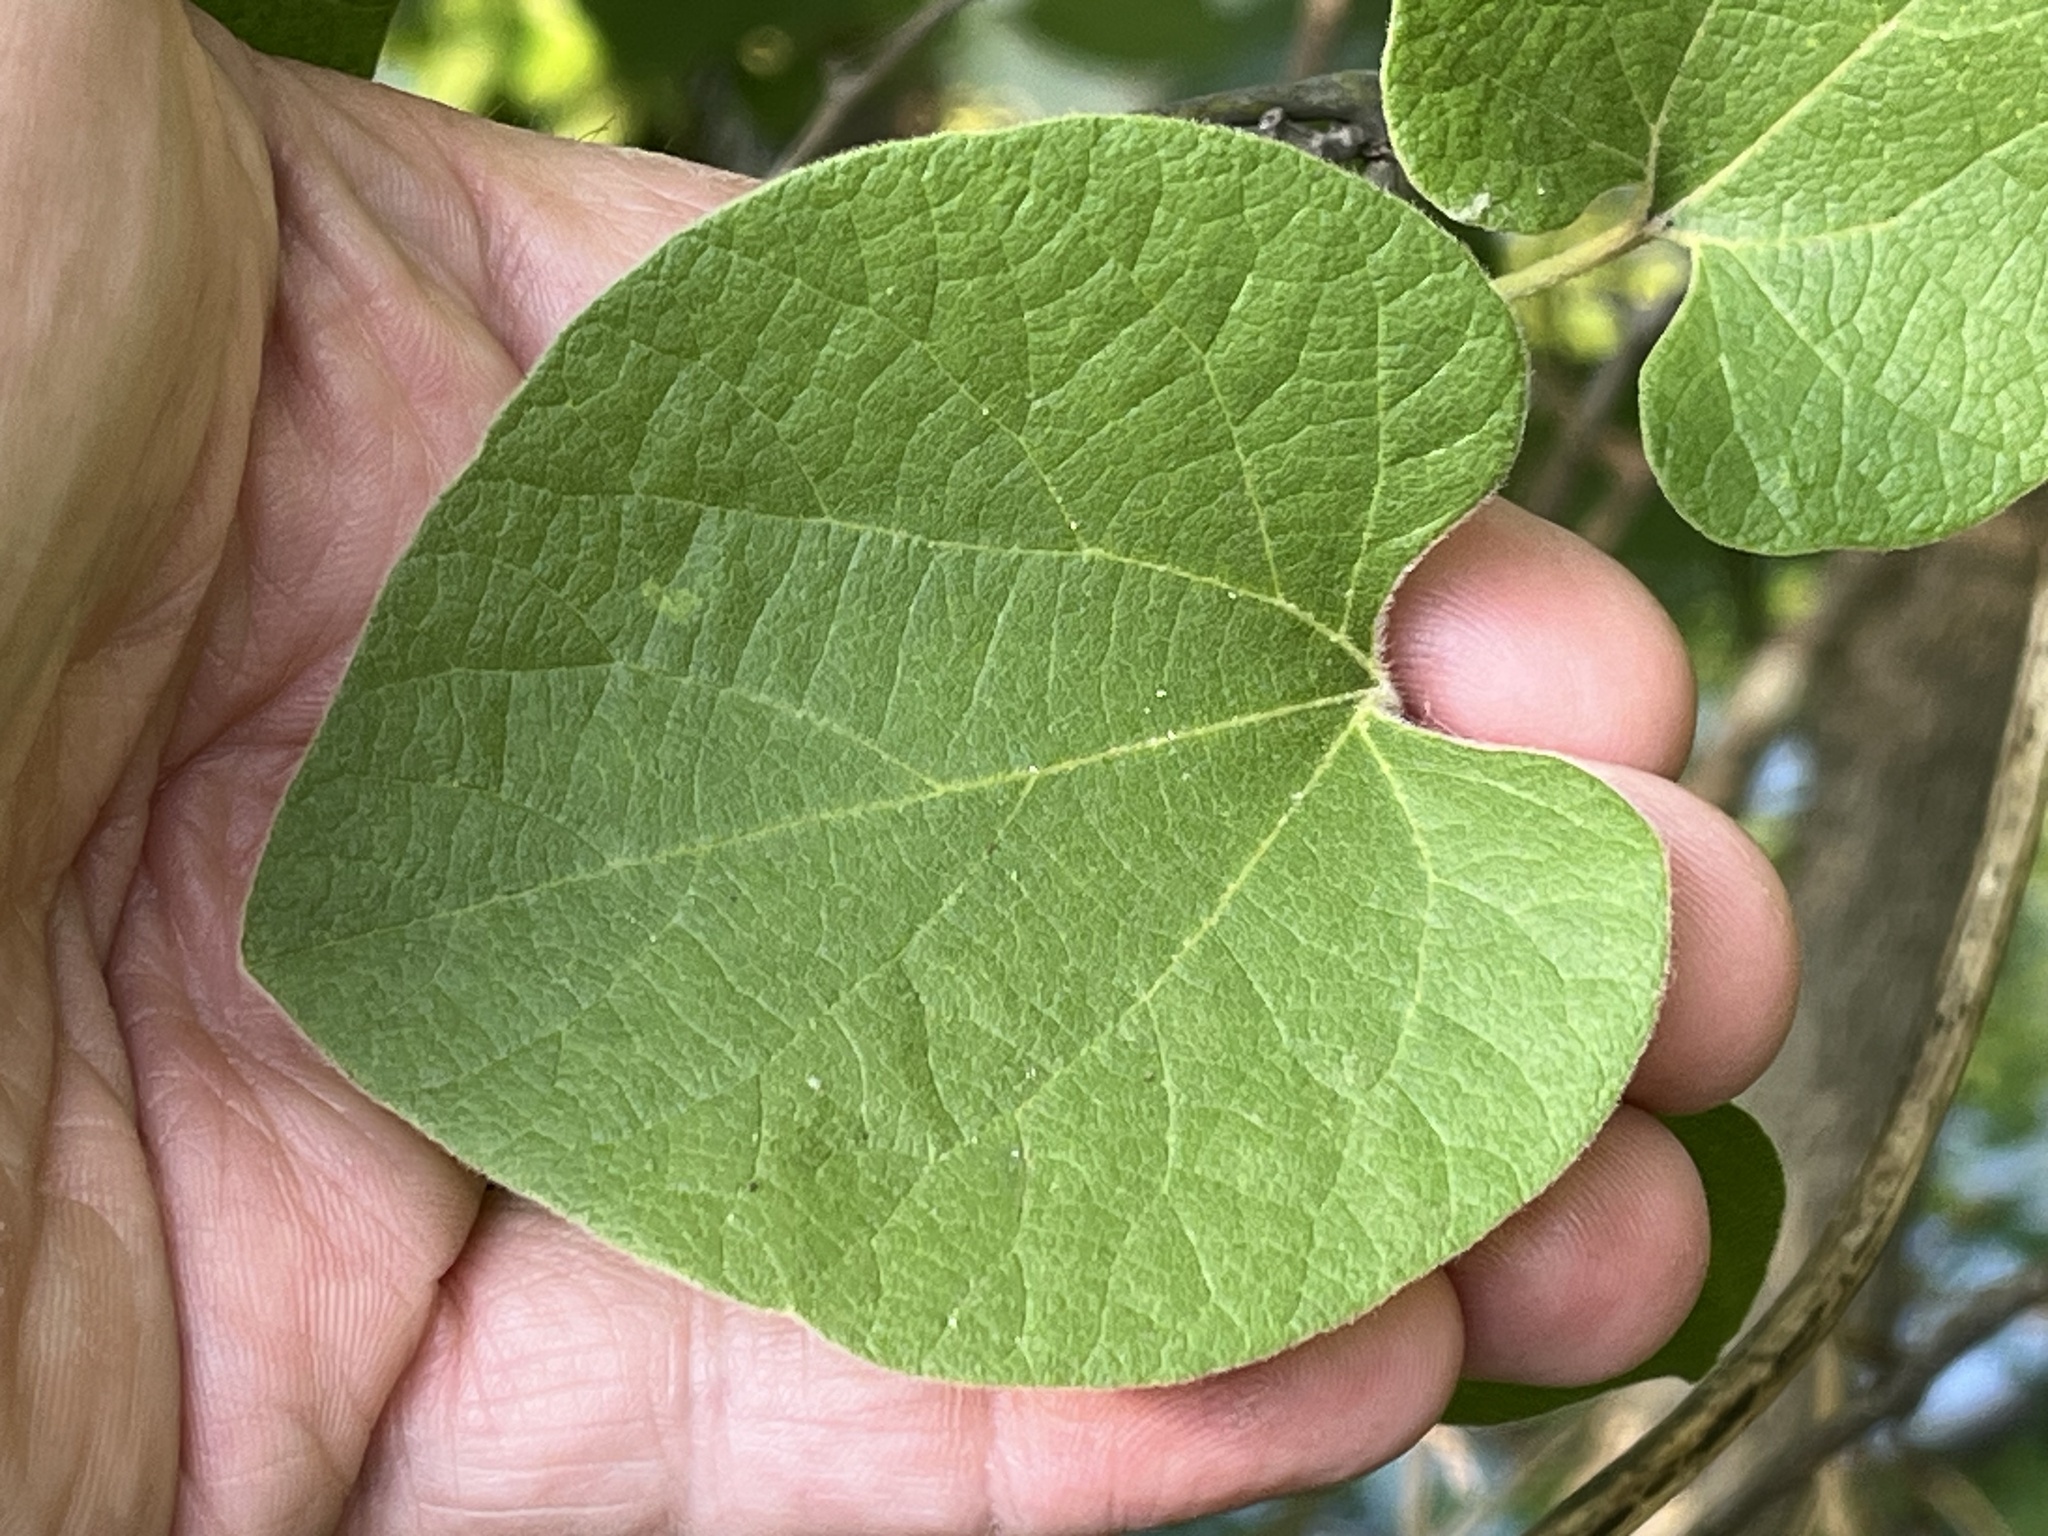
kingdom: Plantae
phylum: Tracheophyta
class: Magnoliopsida
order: Piperales
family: Aristolochiaceae
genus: Isotrema
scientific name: Isotrema tomentosum
